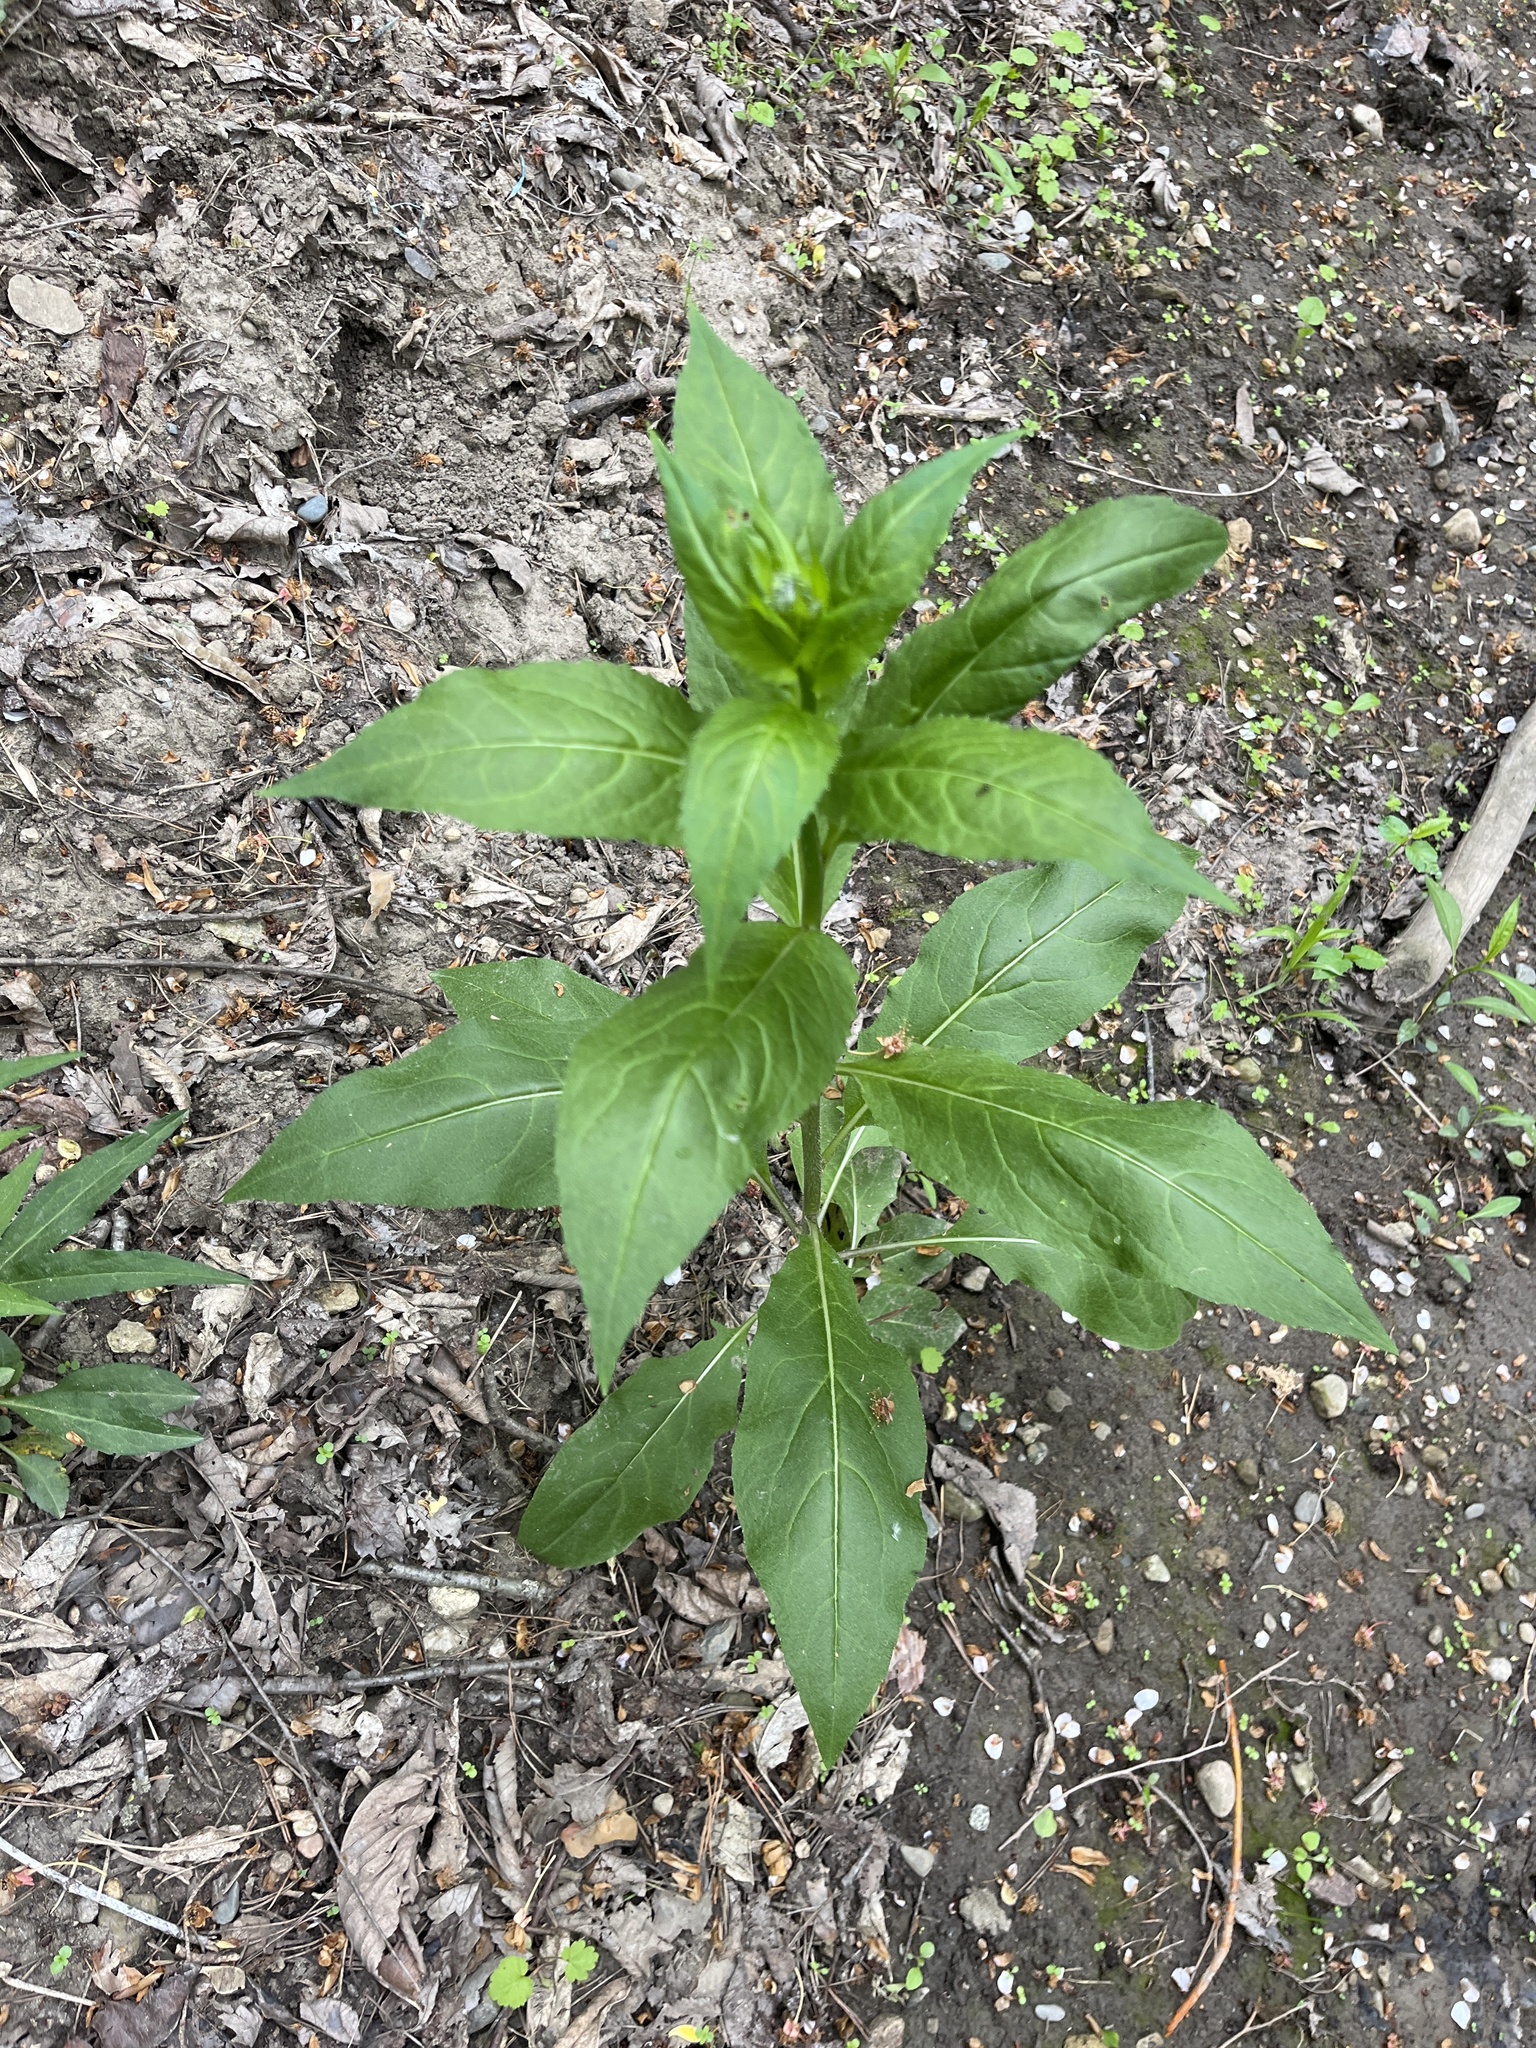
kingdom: Plantae
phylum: Tracheophyta
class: Magnoliopsida
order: Brassicales
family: Brassicaceae
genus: Hesperis
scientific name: Hesperis matronalis
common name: Dame's-violet
